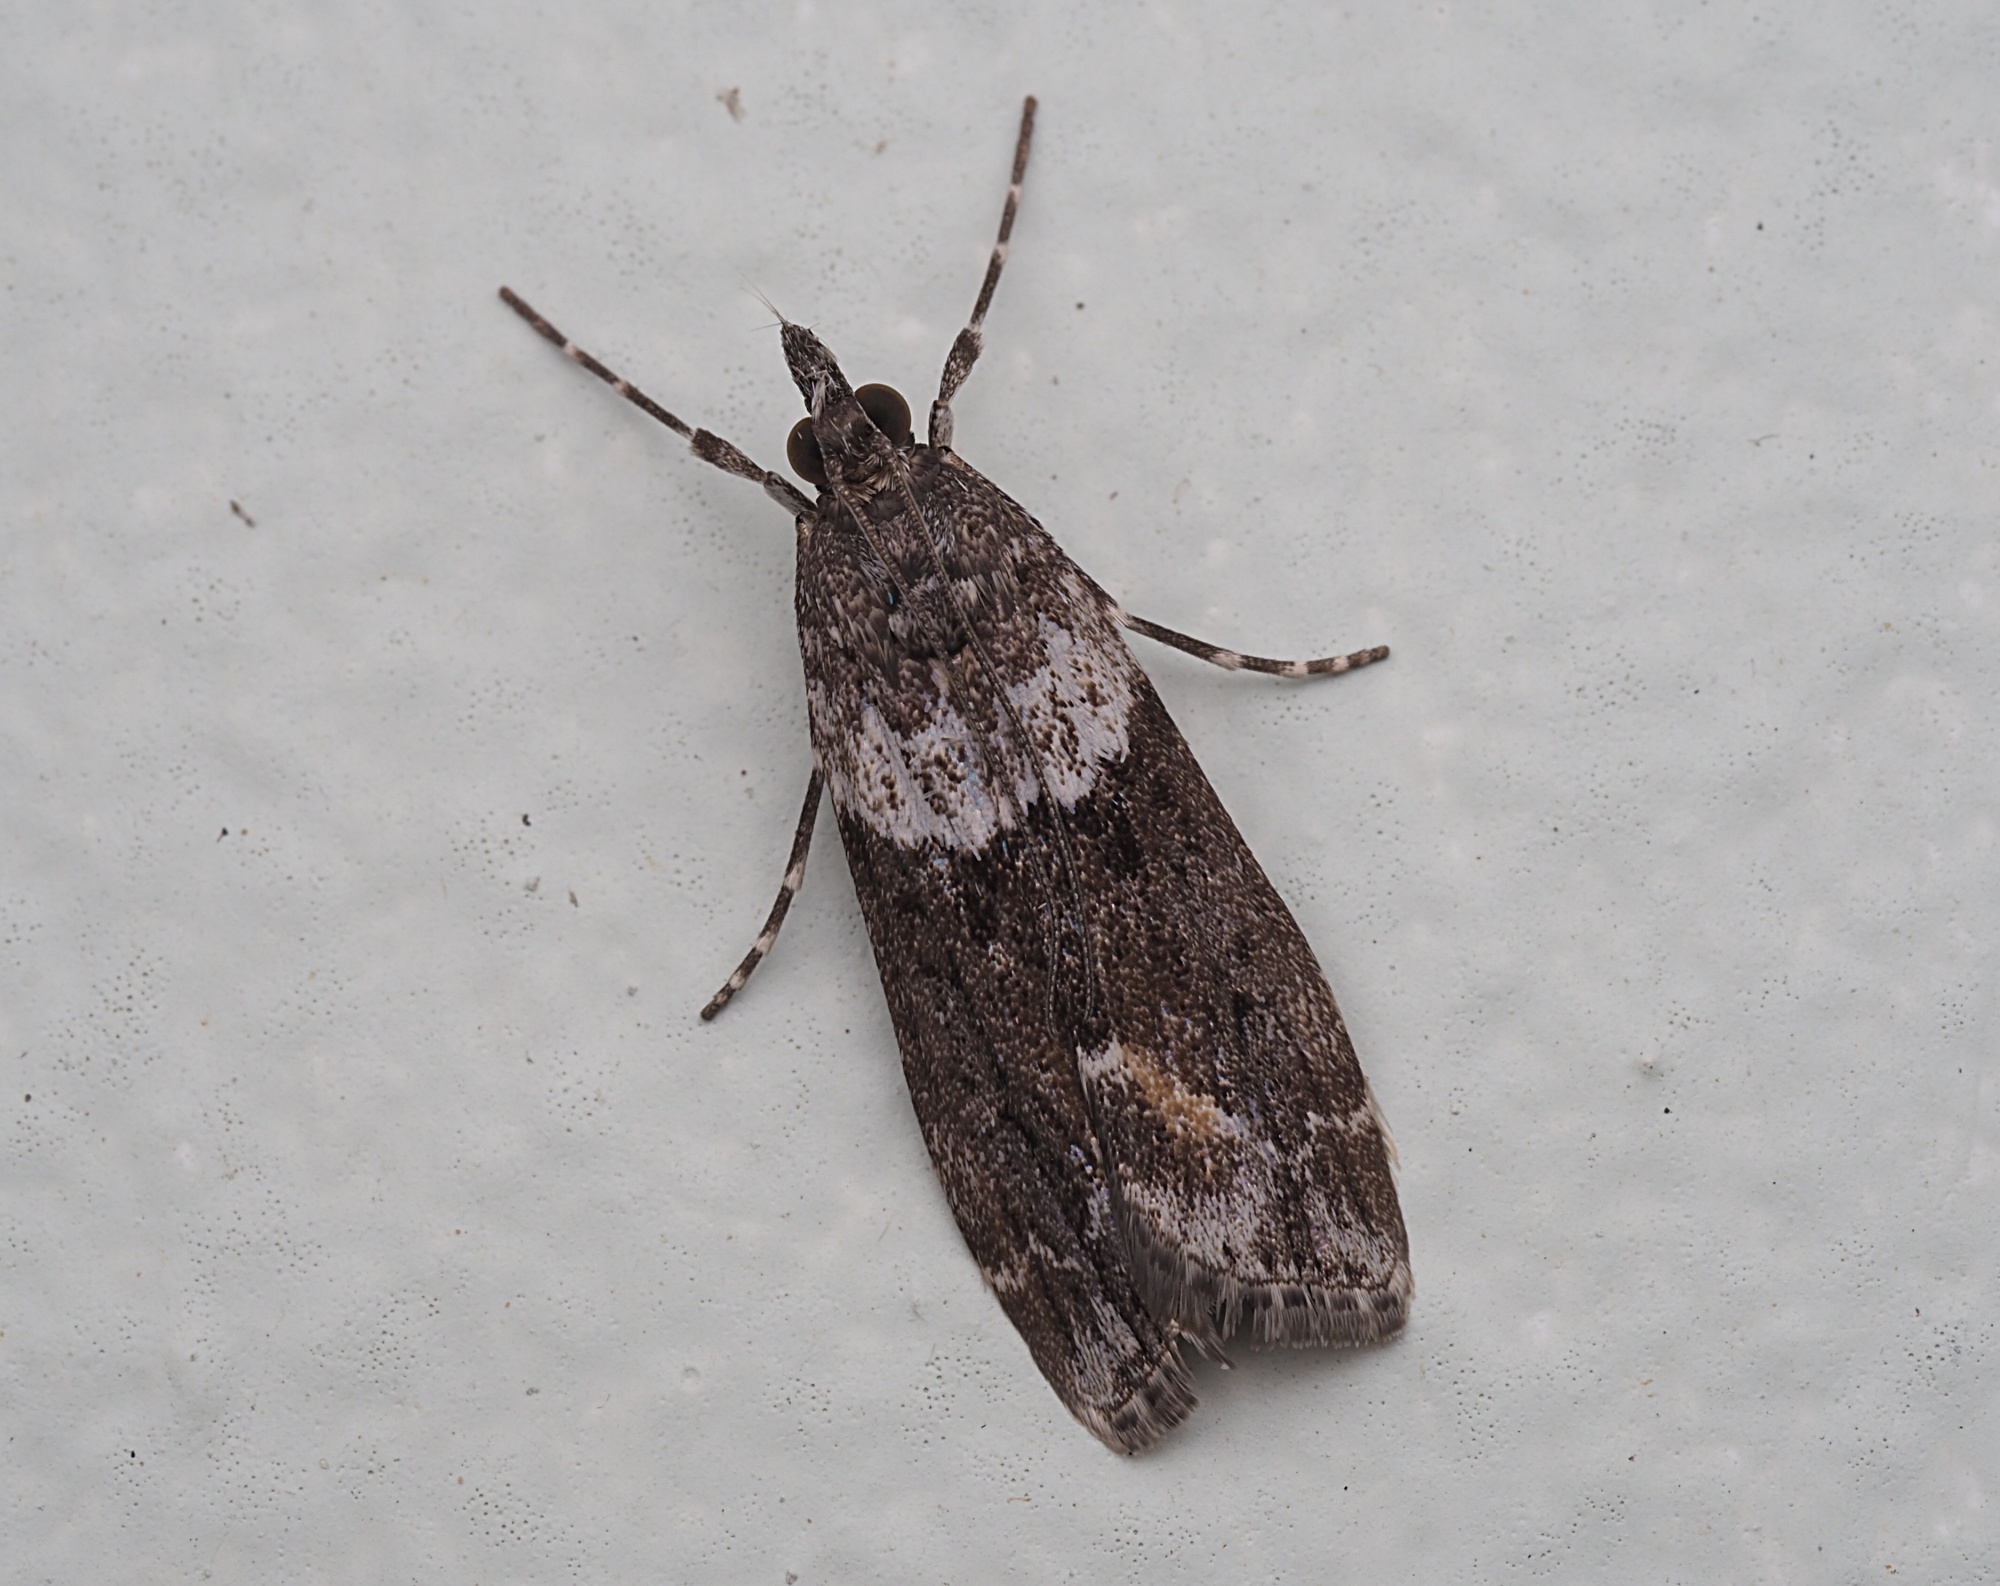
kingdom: Animalia
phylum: Arthropoda
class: Insecta
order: Lepidoptera
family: Crambidae
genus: Eudonia
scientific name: Eudonia submarginalis
